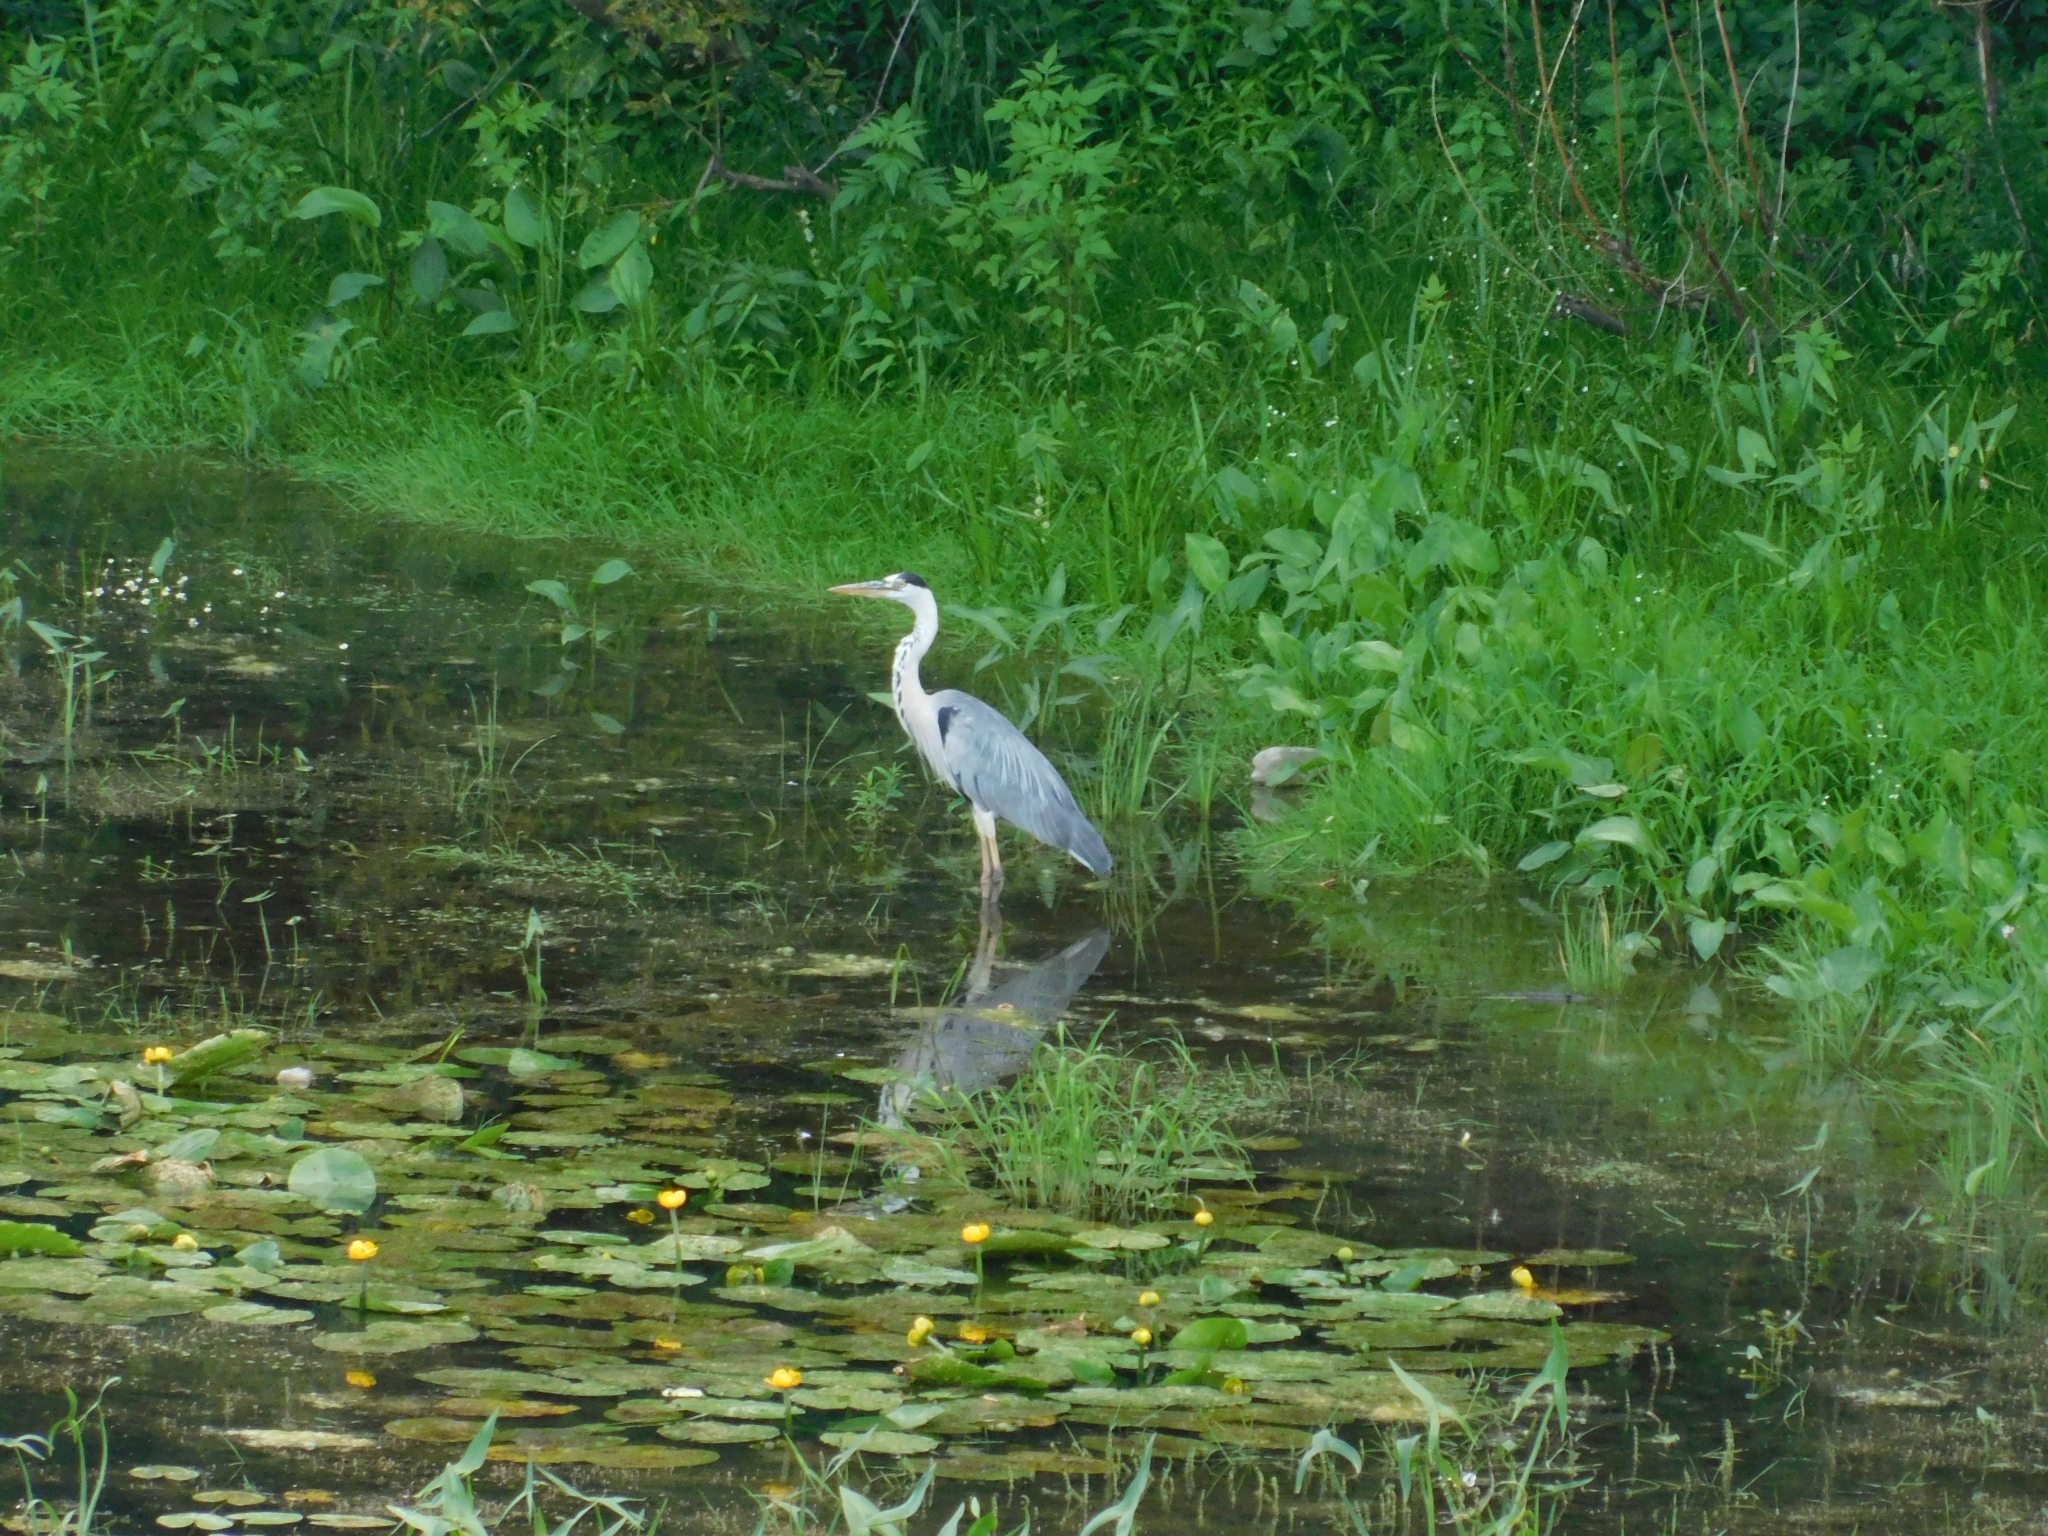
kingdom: Animalia
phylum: Chordata
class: Aves
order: Pelecaniformes
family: Ardeidae
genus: Ardea
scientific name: Ardea cinerea
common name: Grey heron
